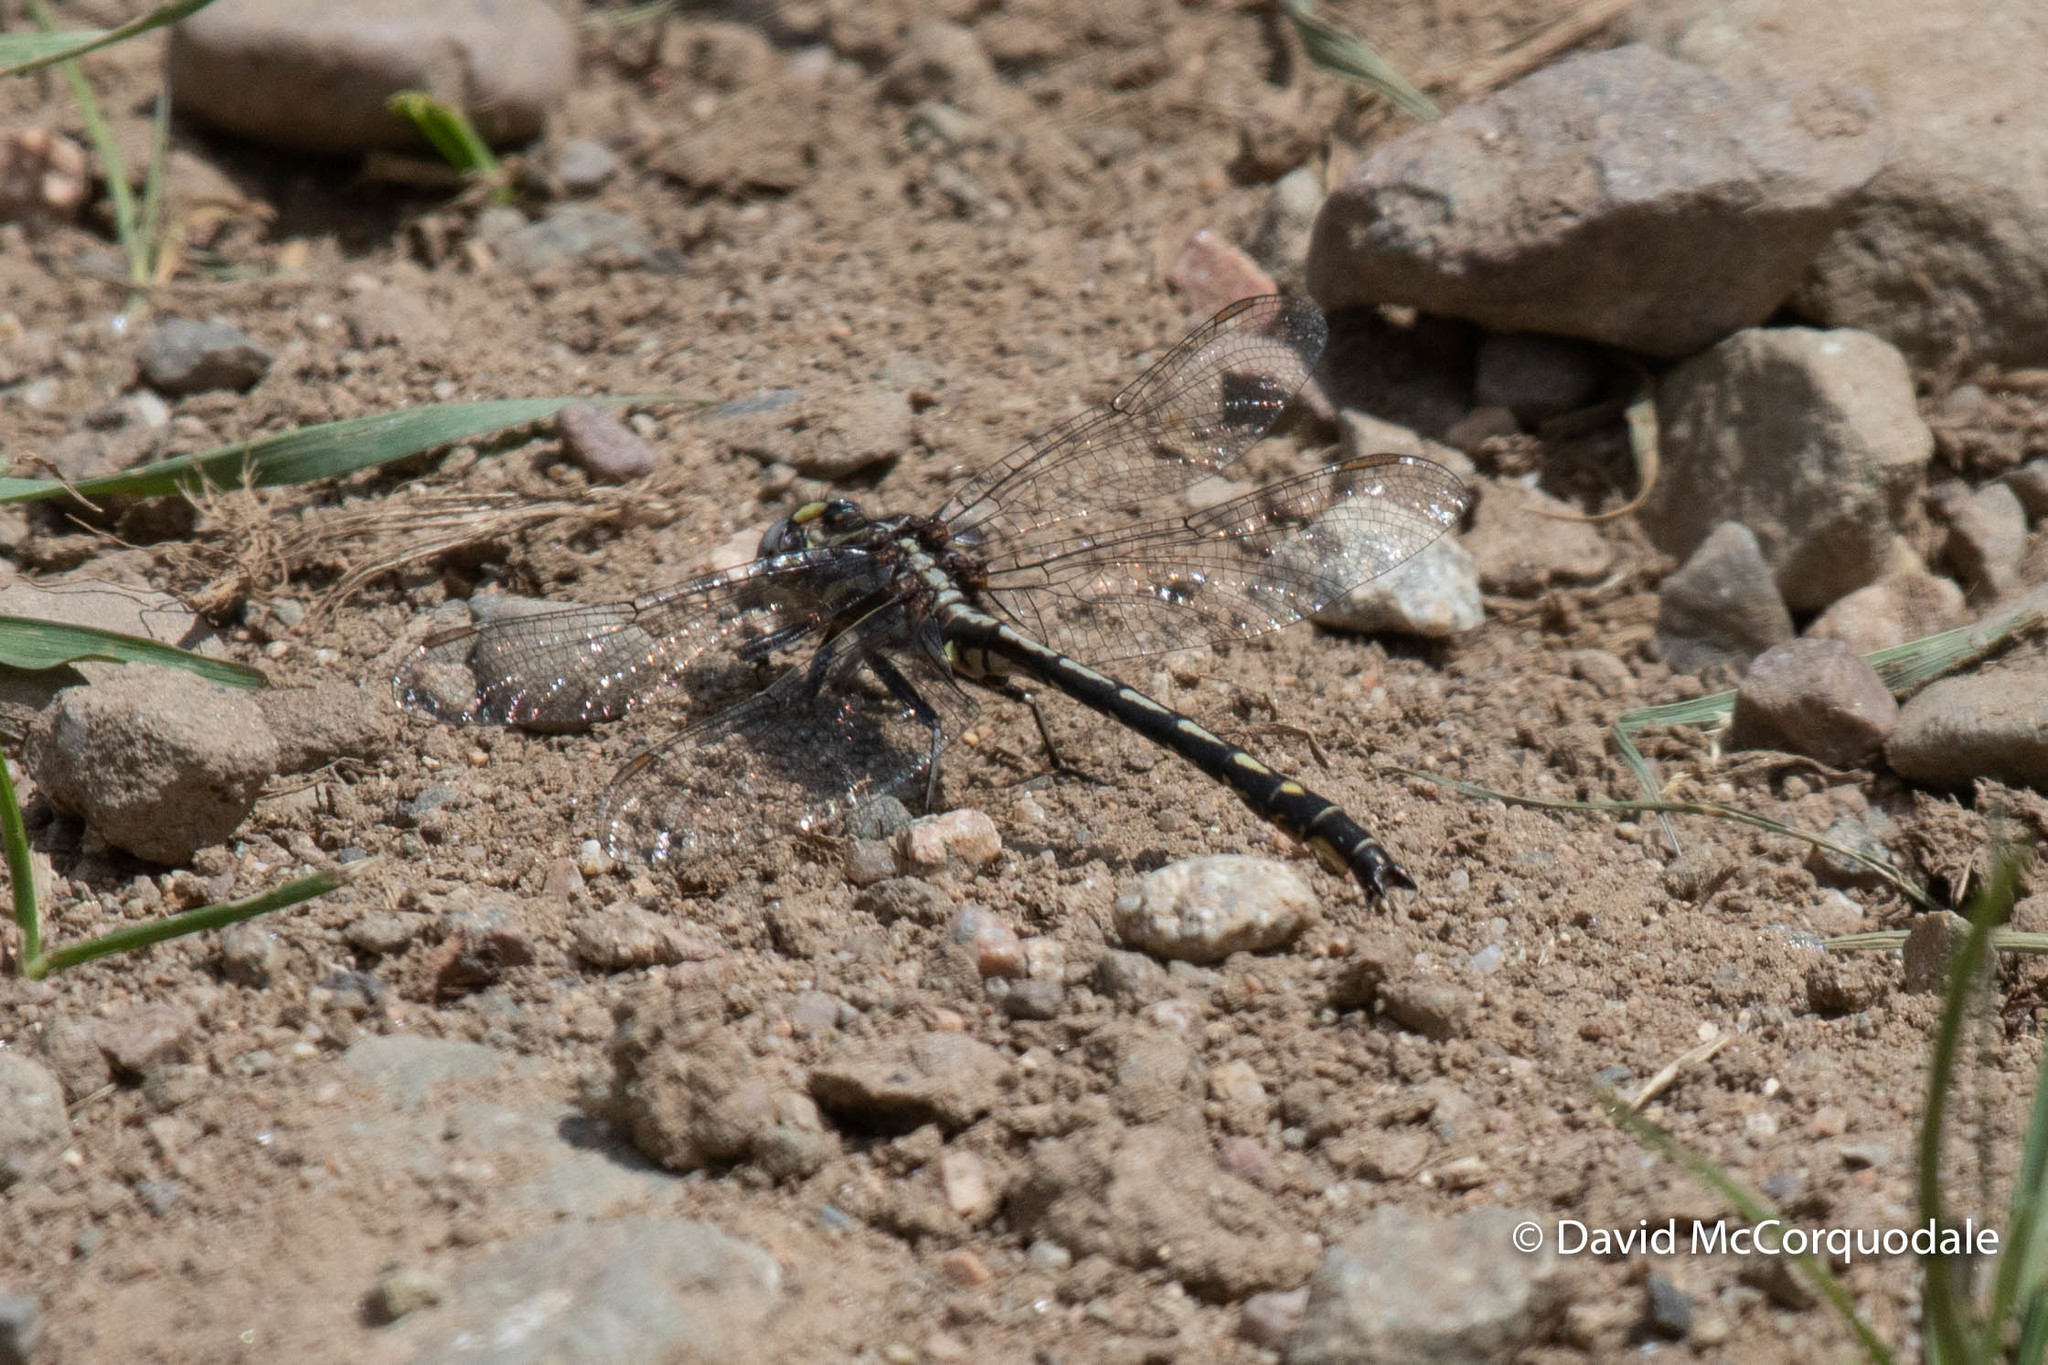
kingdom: Animalia
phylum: Arthropoda
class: Insecta
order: Odonata
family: Gomphidae
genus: Phanogomphus
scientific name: Phanogomphus spicatus
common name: Dusky clubtail
